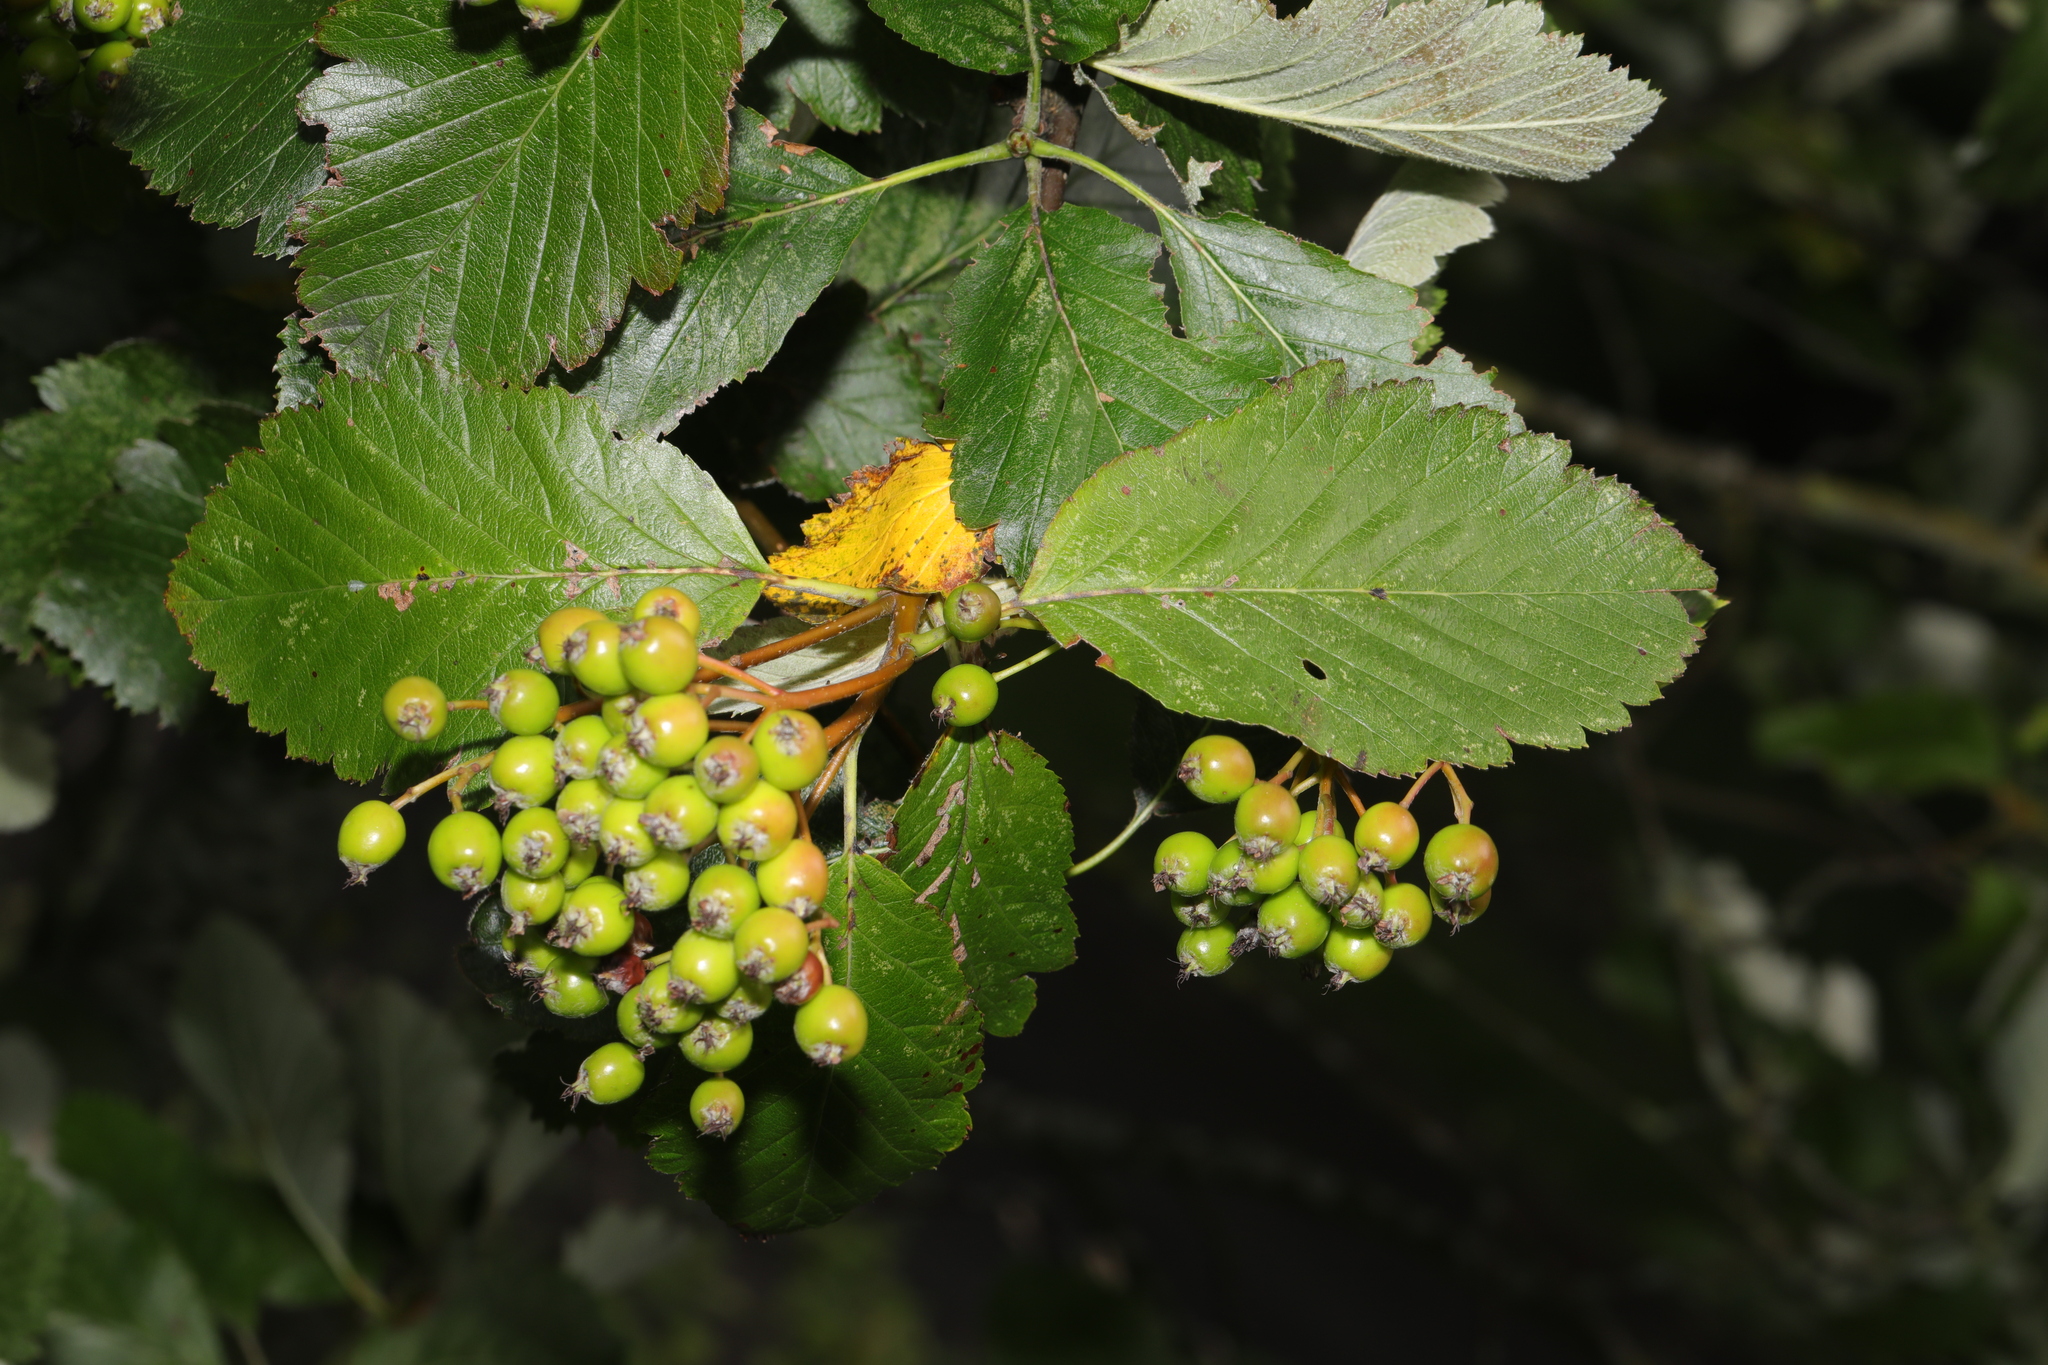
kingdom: Plantae
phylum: Tracheophyta
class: Magnoliopsida
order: Rosales
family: Rosaceae
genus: Hedlundia
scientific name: Hedlundia mougeotii
